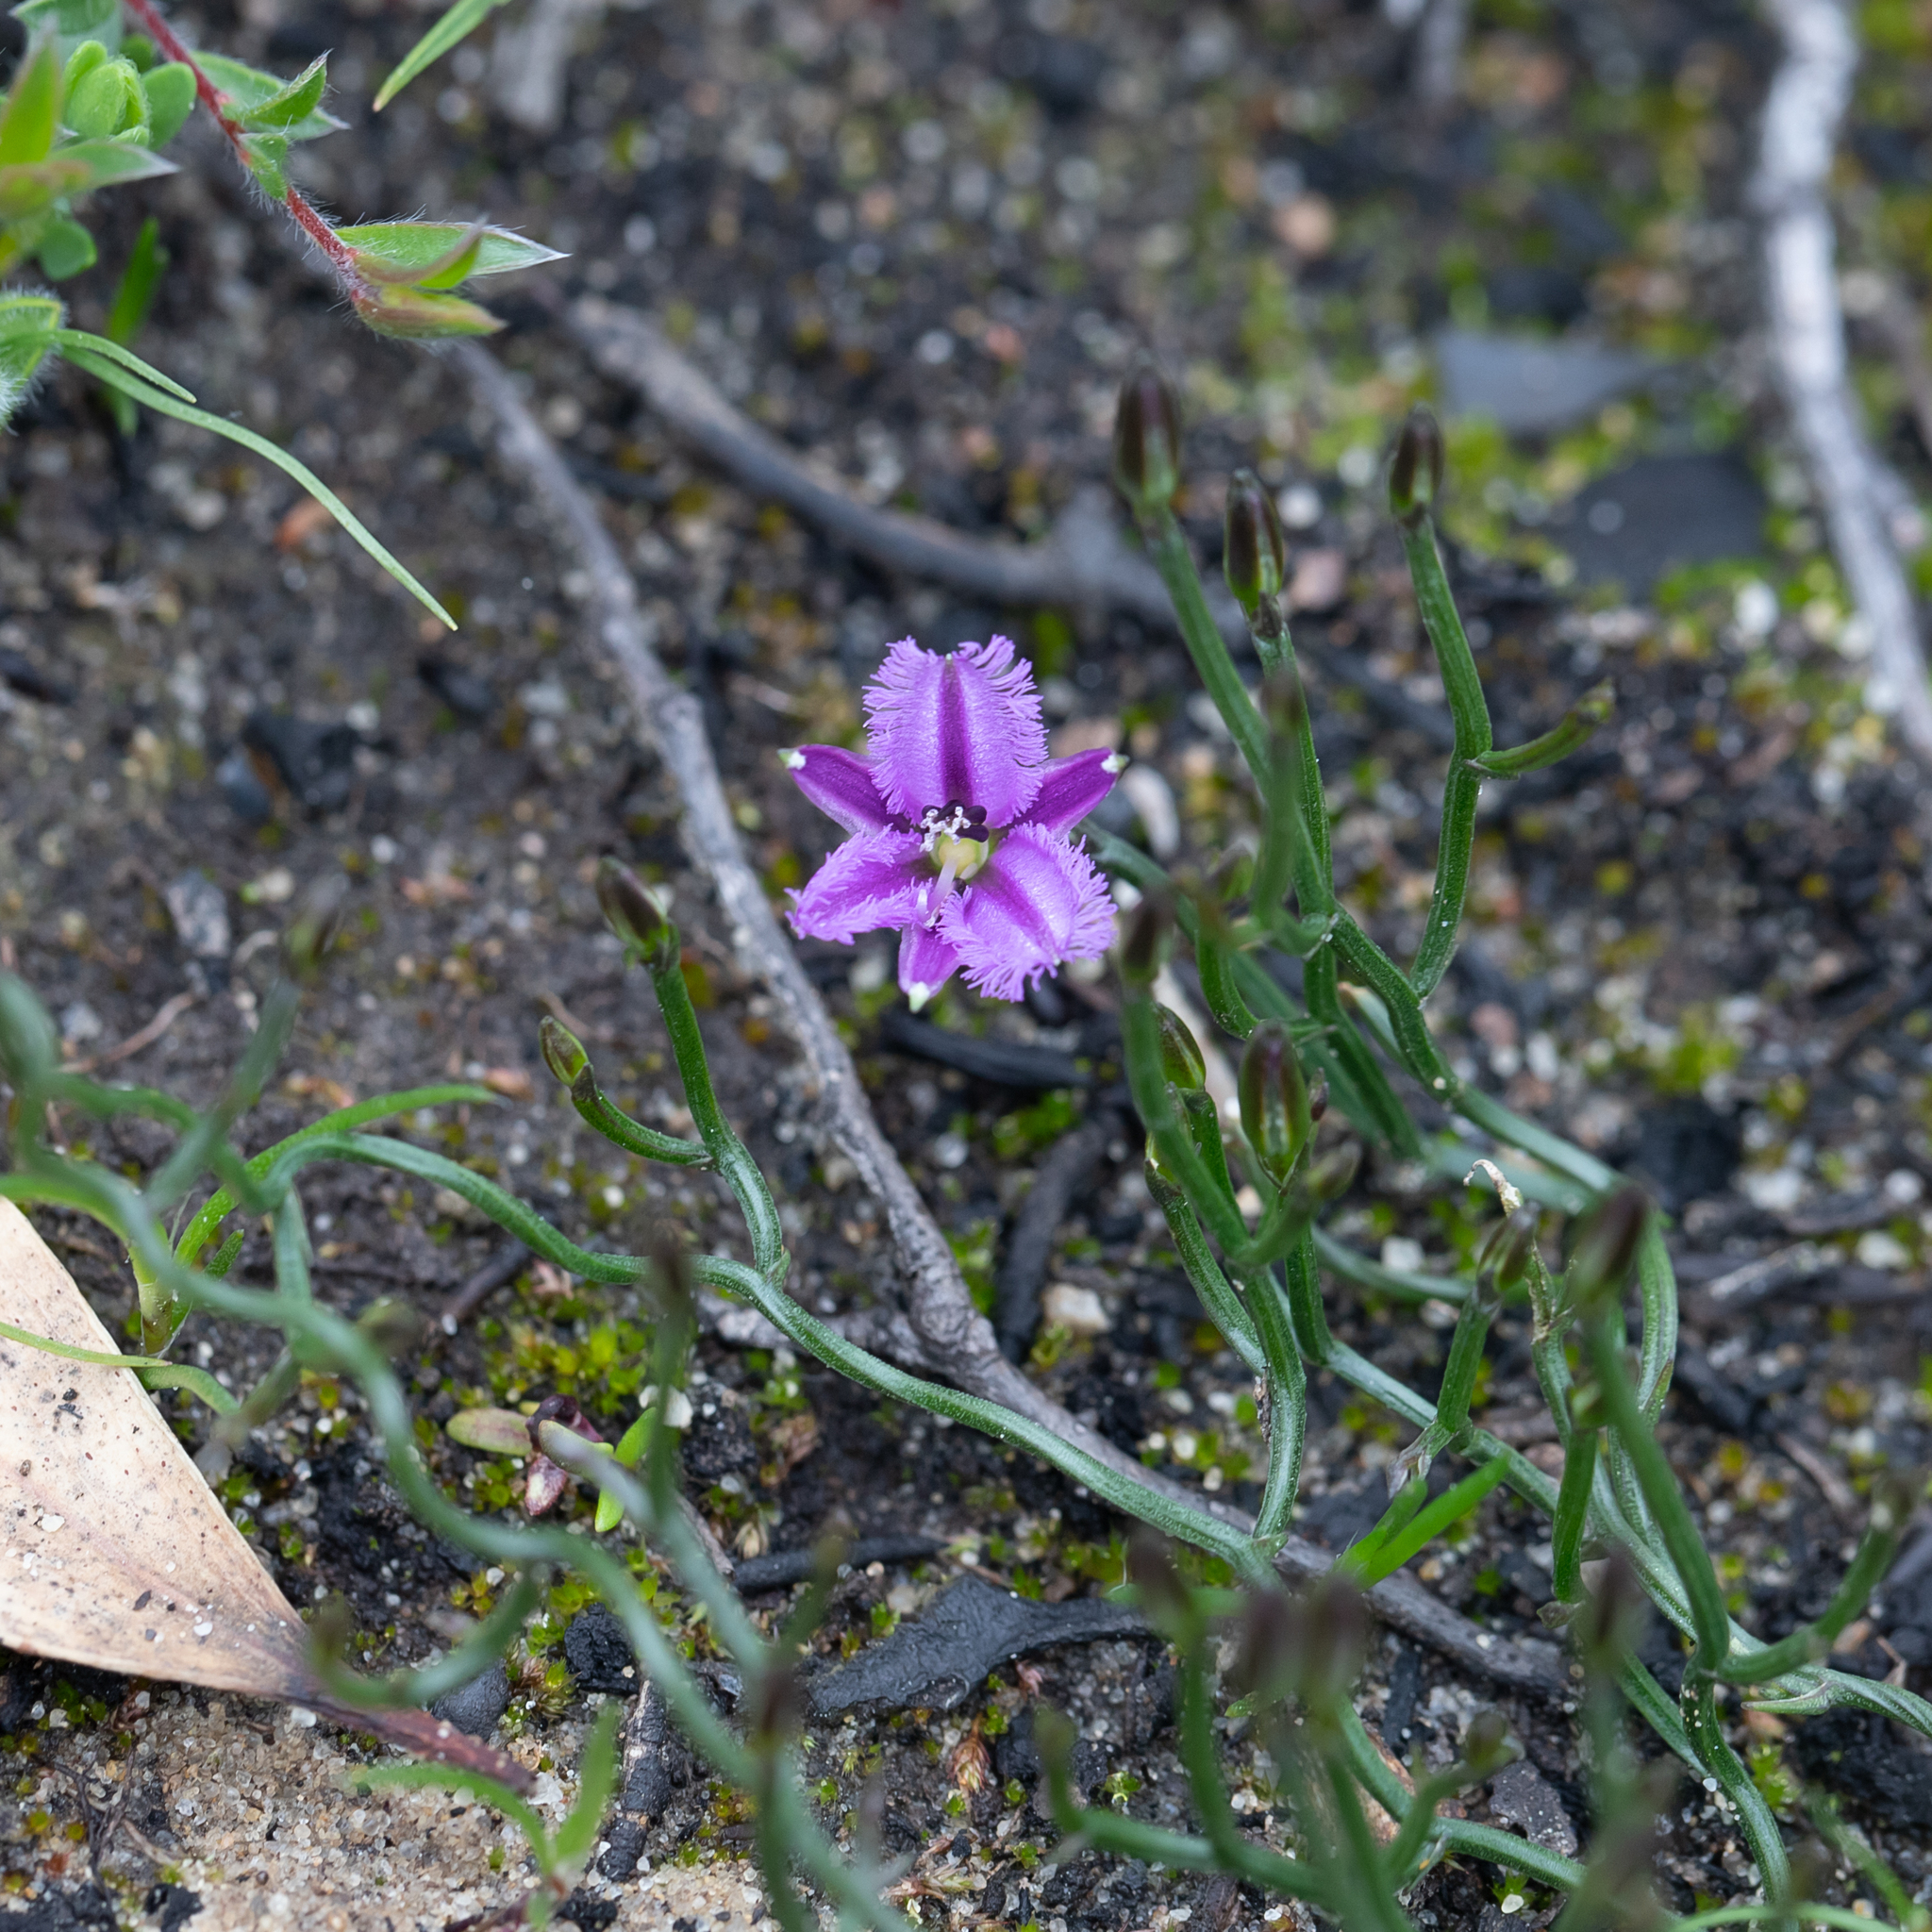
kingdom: Plantae
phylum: Tracheophyta
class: Liliopsida
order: Asparagales
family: Asparagaceae
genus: Thysanotus
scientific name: Thysanotus patersonii
